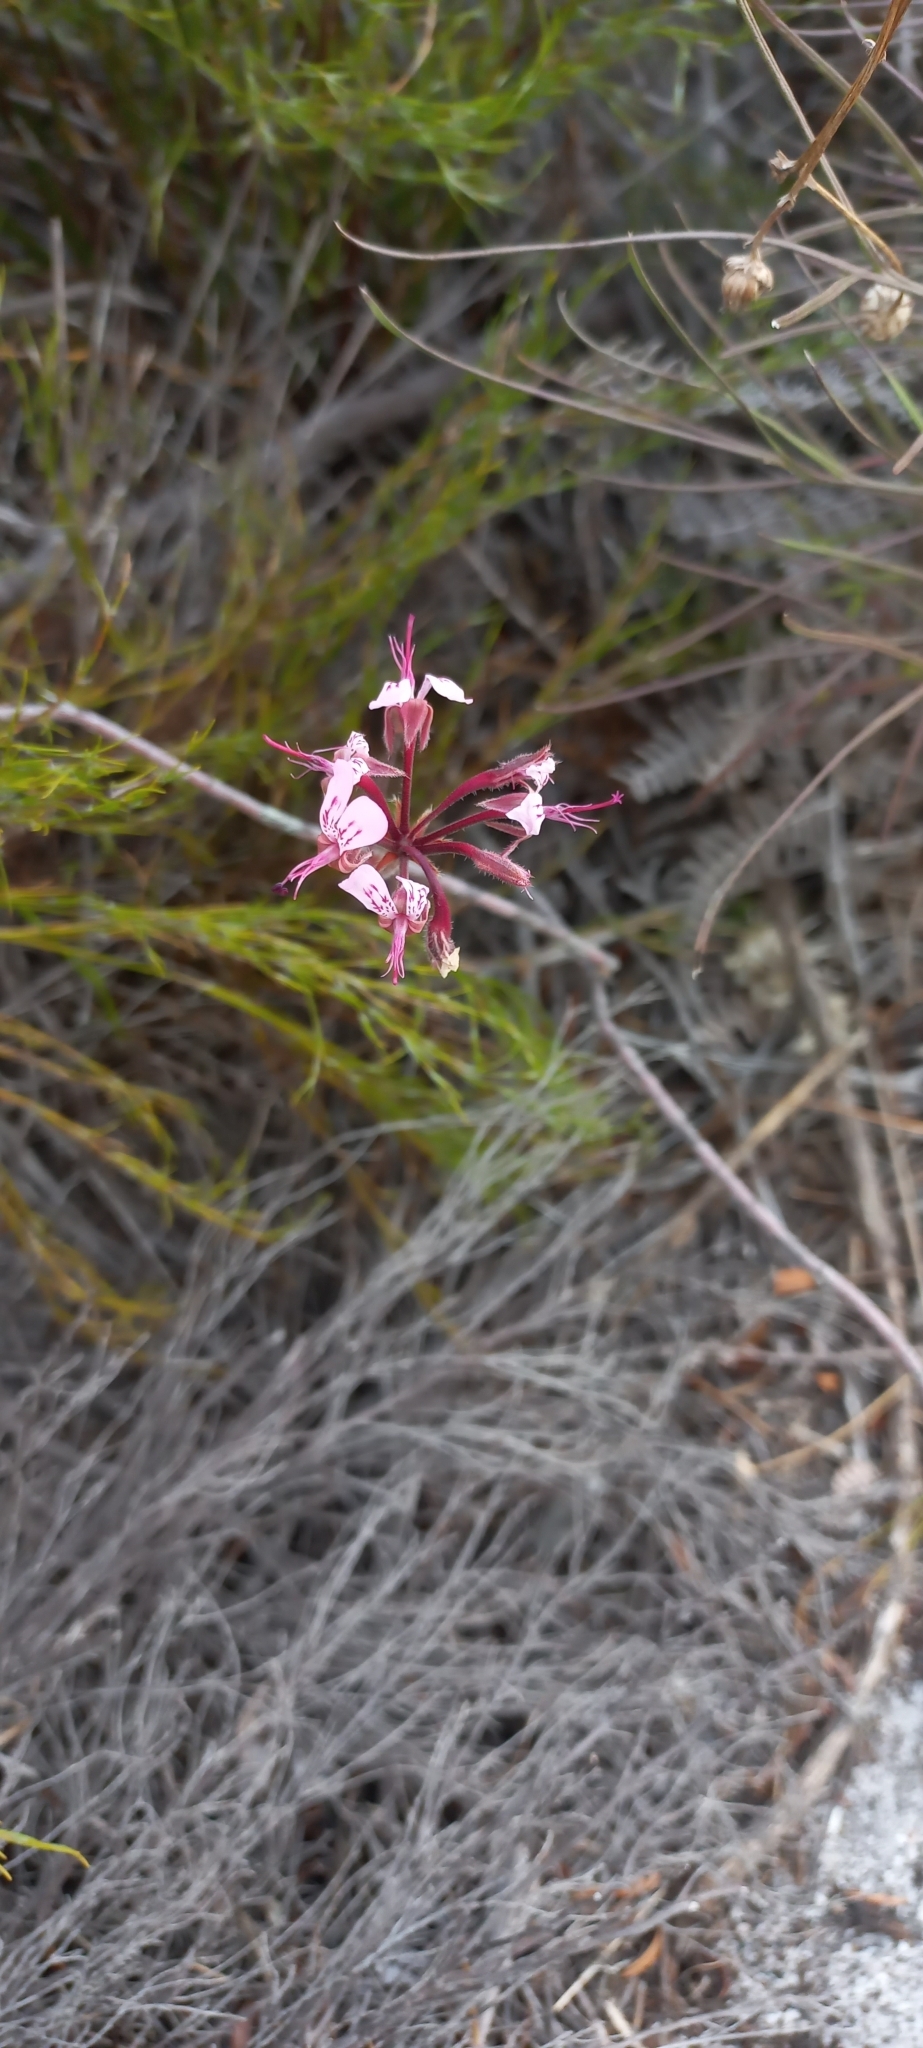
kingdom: Plantae
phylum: Tracheophyta
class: Magnoliopsida
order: Geraniales
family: Geraniaceae
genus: Pelargonium
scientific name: Pelargonium dipetalum
